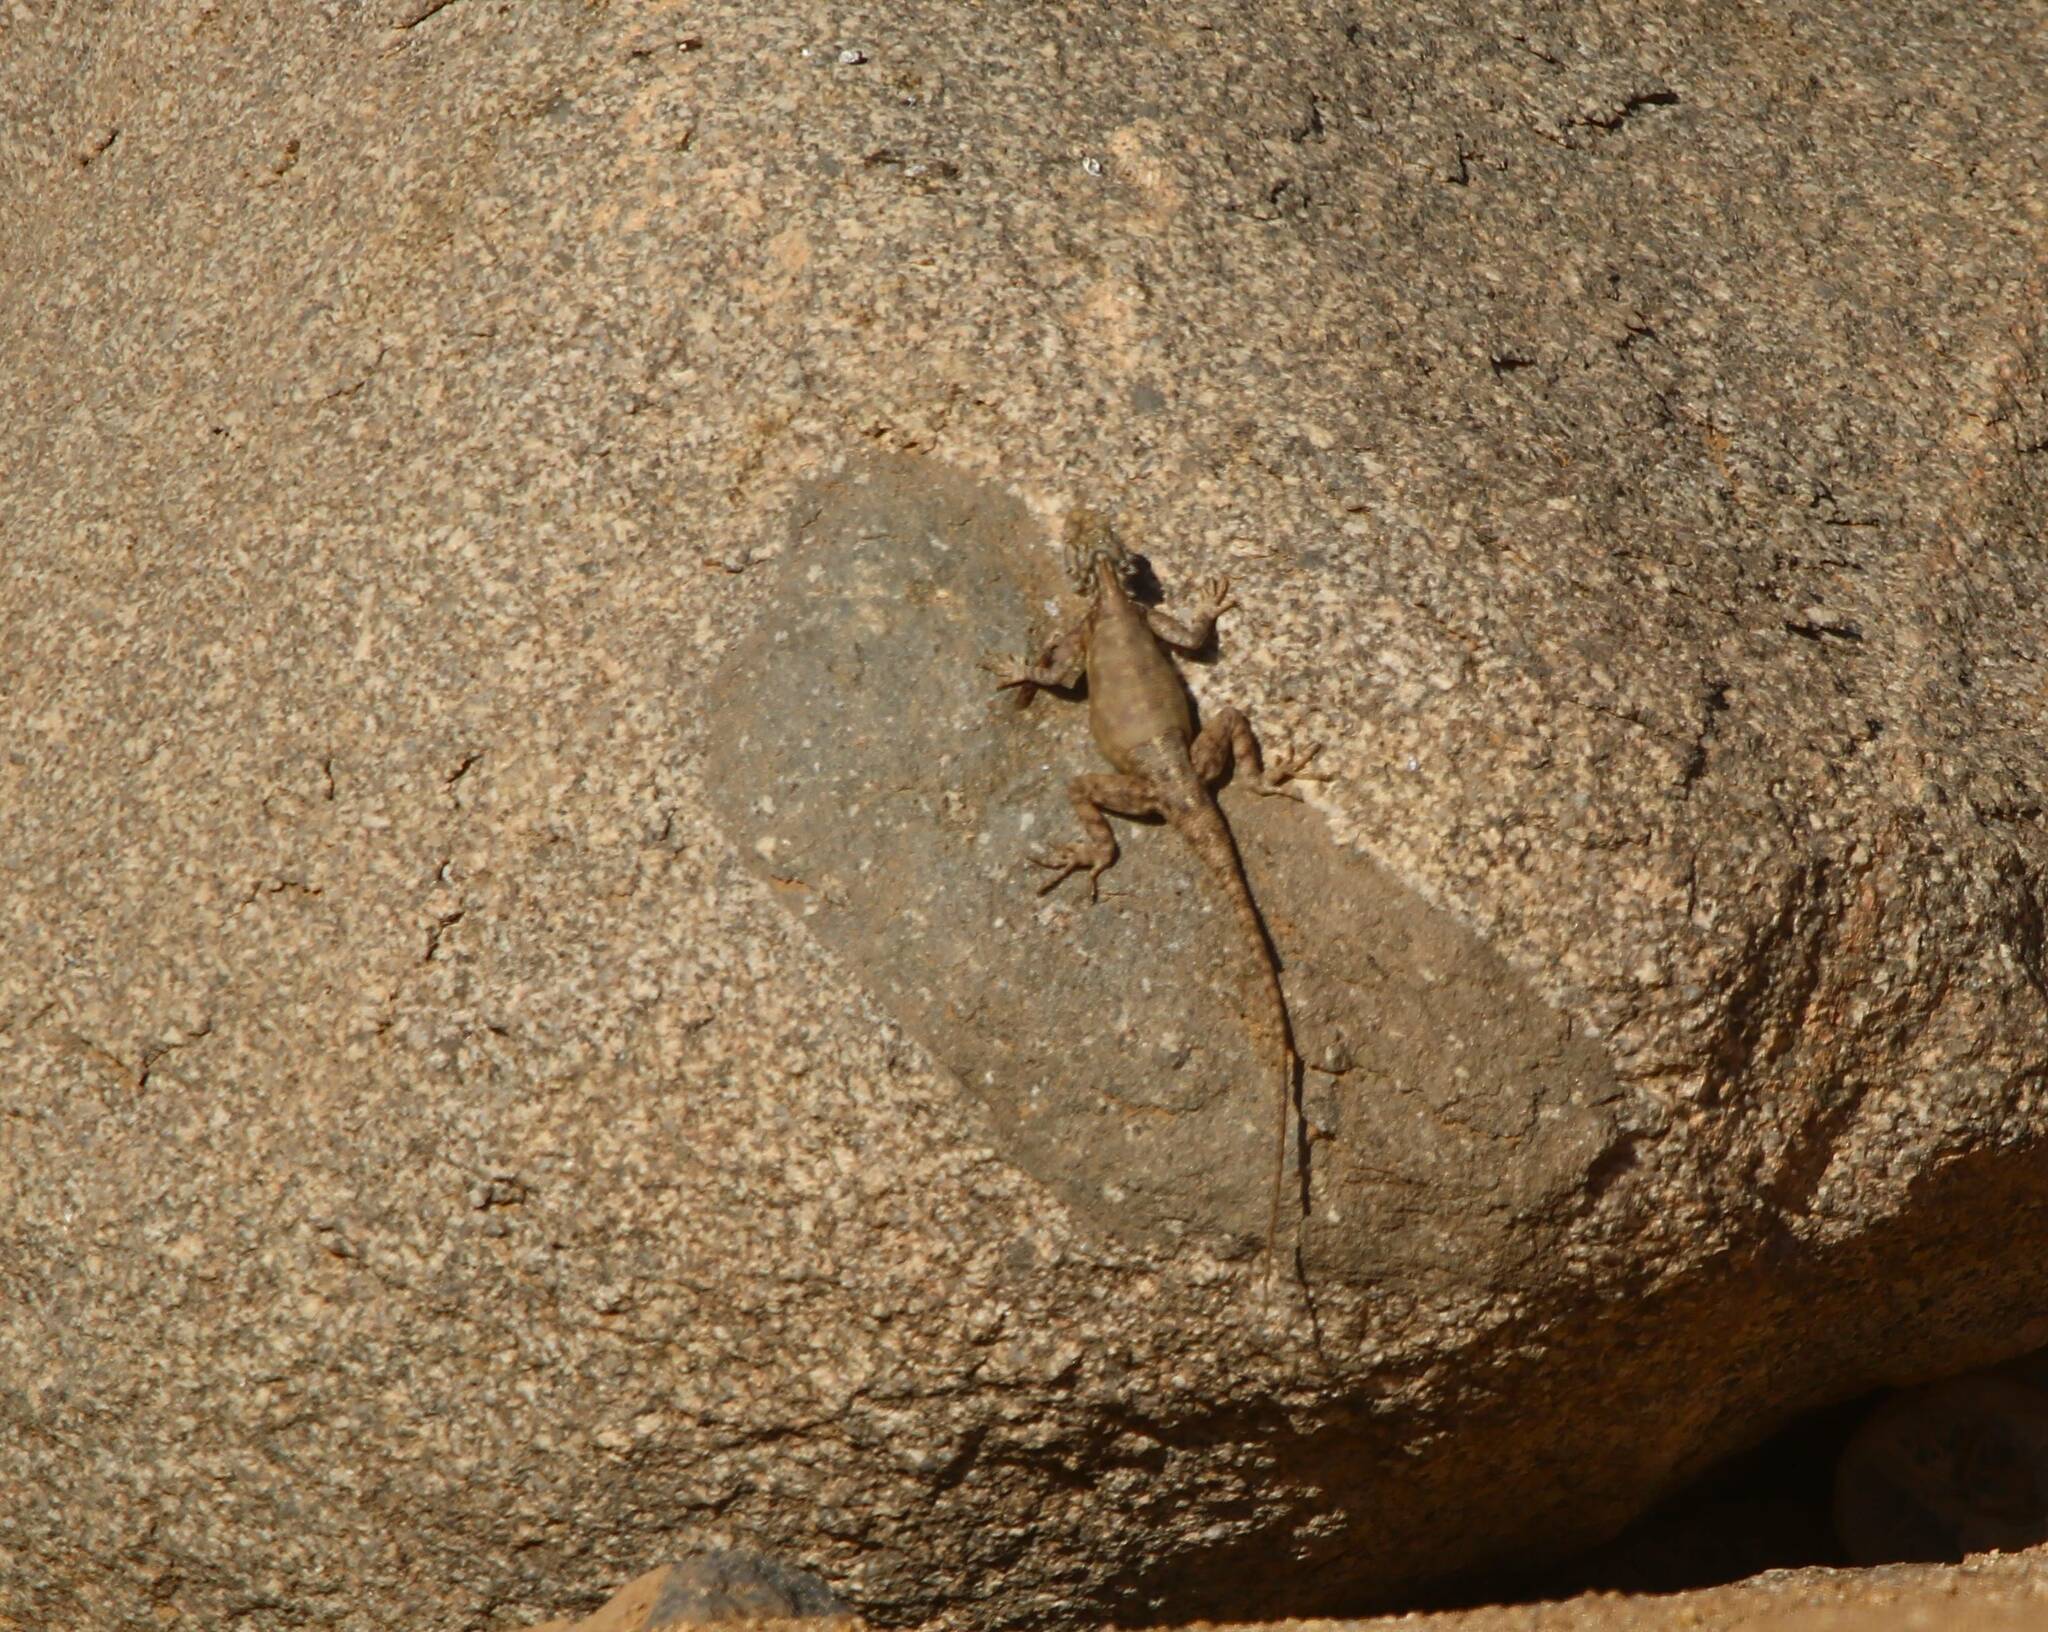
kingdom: Animalia
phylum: Chordata
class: Squamata
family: Agamidae
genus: Agama
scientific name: Agama tassiliensis
